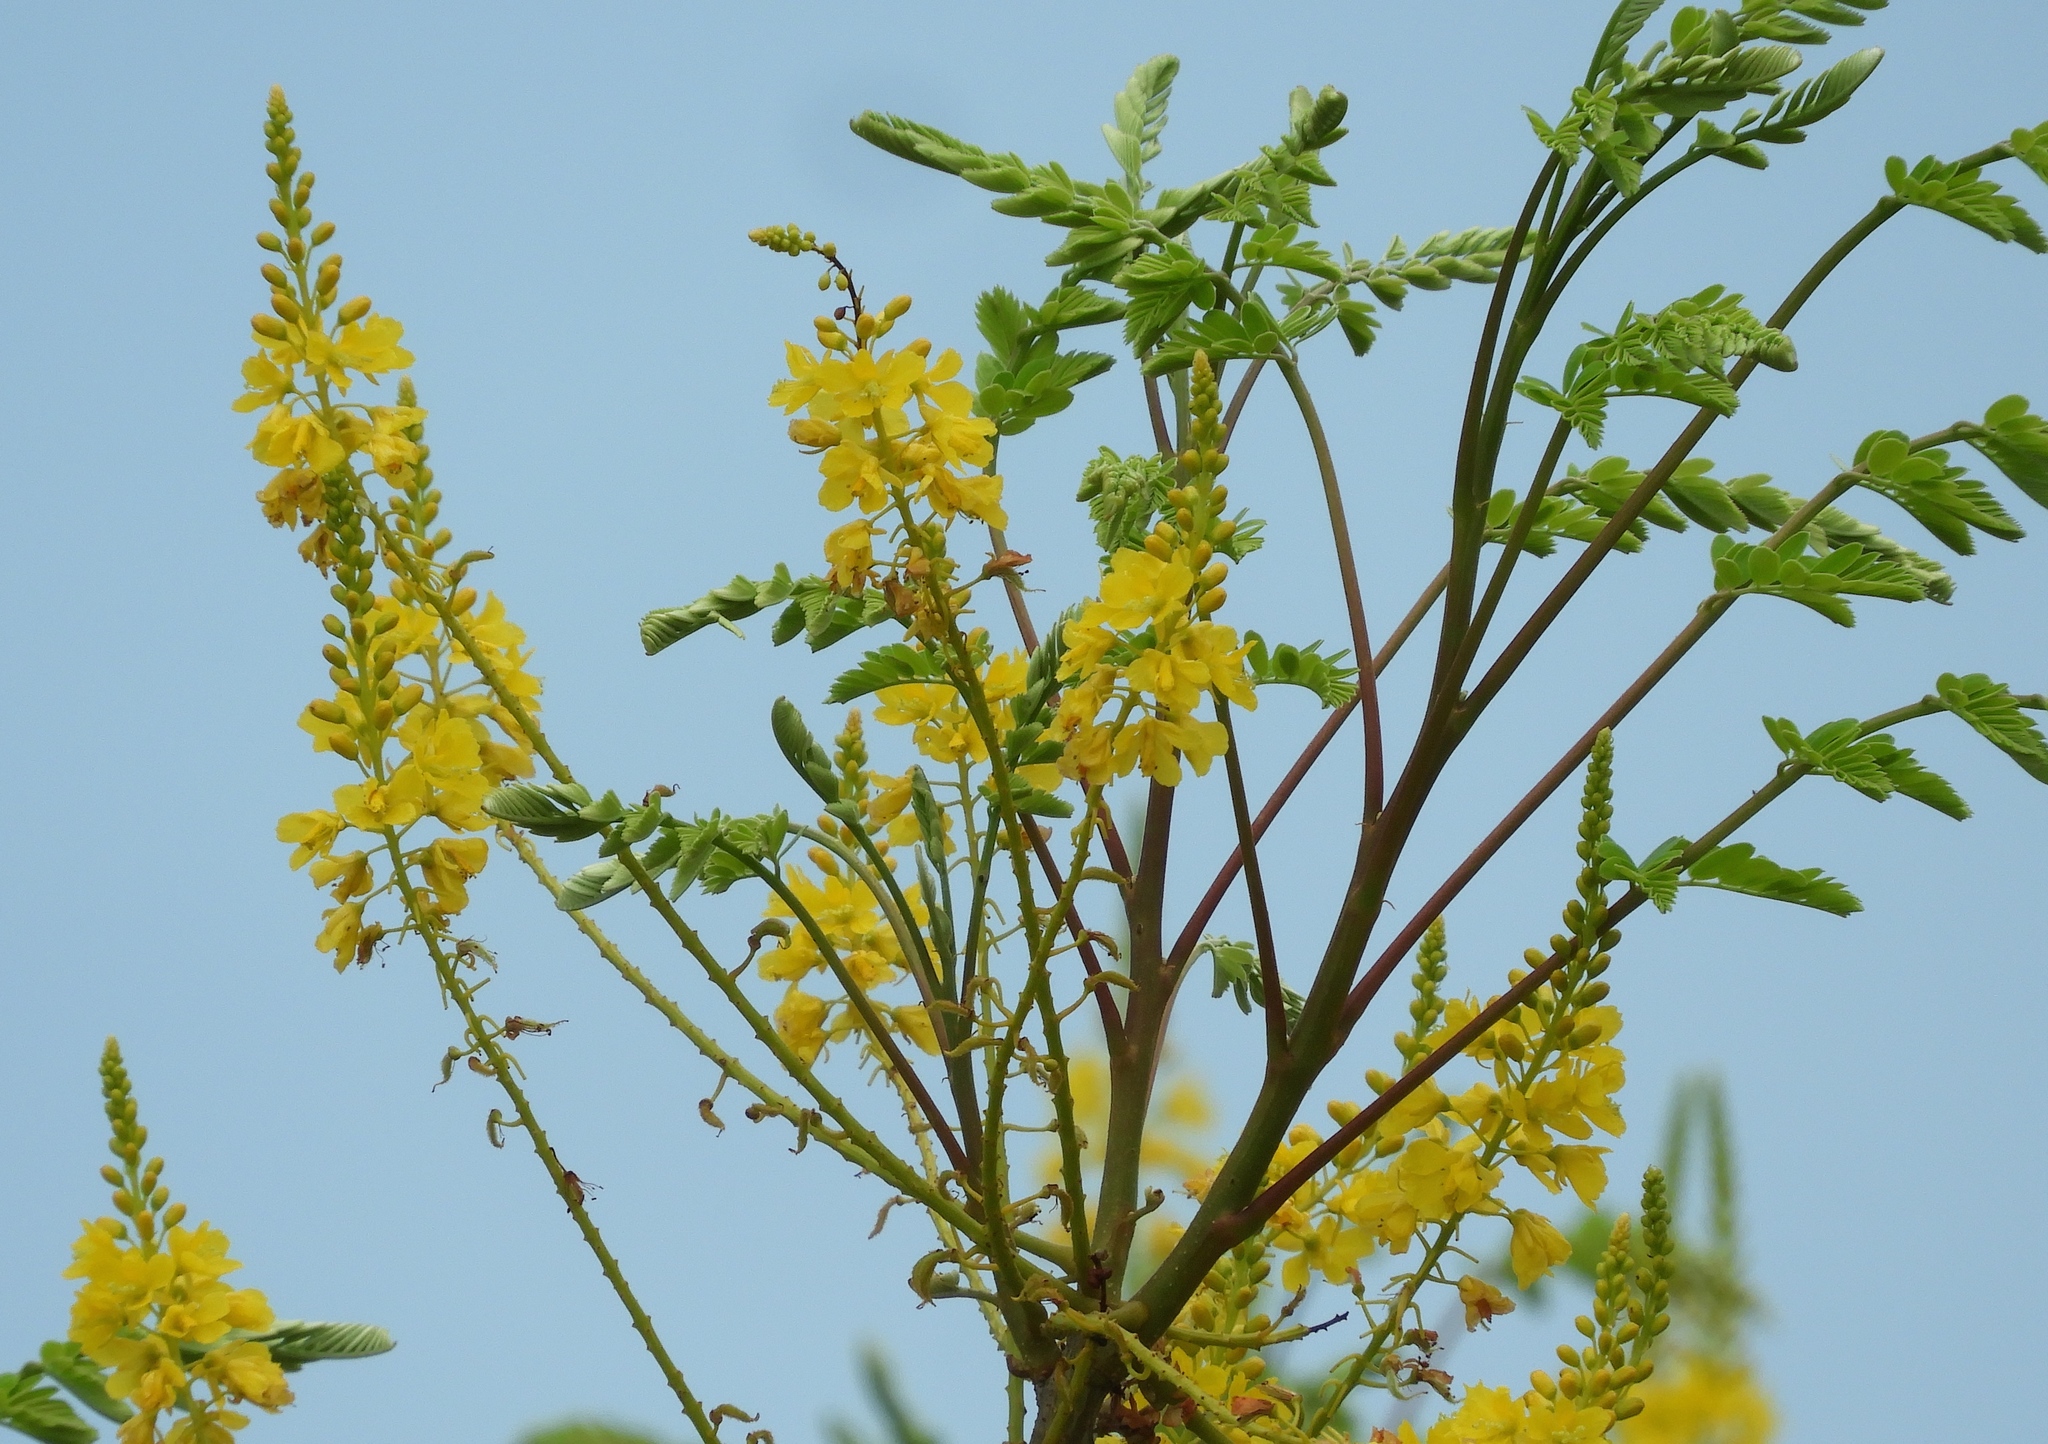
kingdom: Plantae
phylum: Tracheophyta
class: Magnoliopsida
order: Fabales
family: Fabaceae
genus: Conzattia
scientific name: Conzattia sericea
